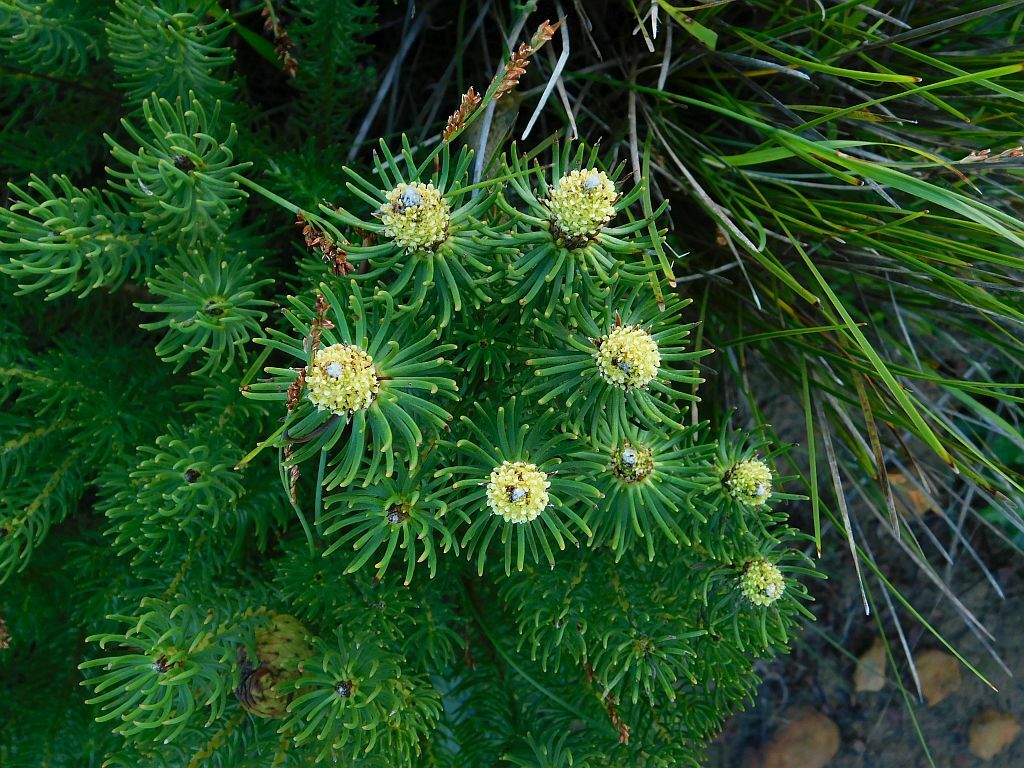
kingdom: Plantae
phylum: Tracheophyta
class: Magnoliopsida
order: Proteales
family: Proteaceae
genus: Leucadendron
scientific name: Leucadendron teretifolium
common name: Needle-leaf conebush
